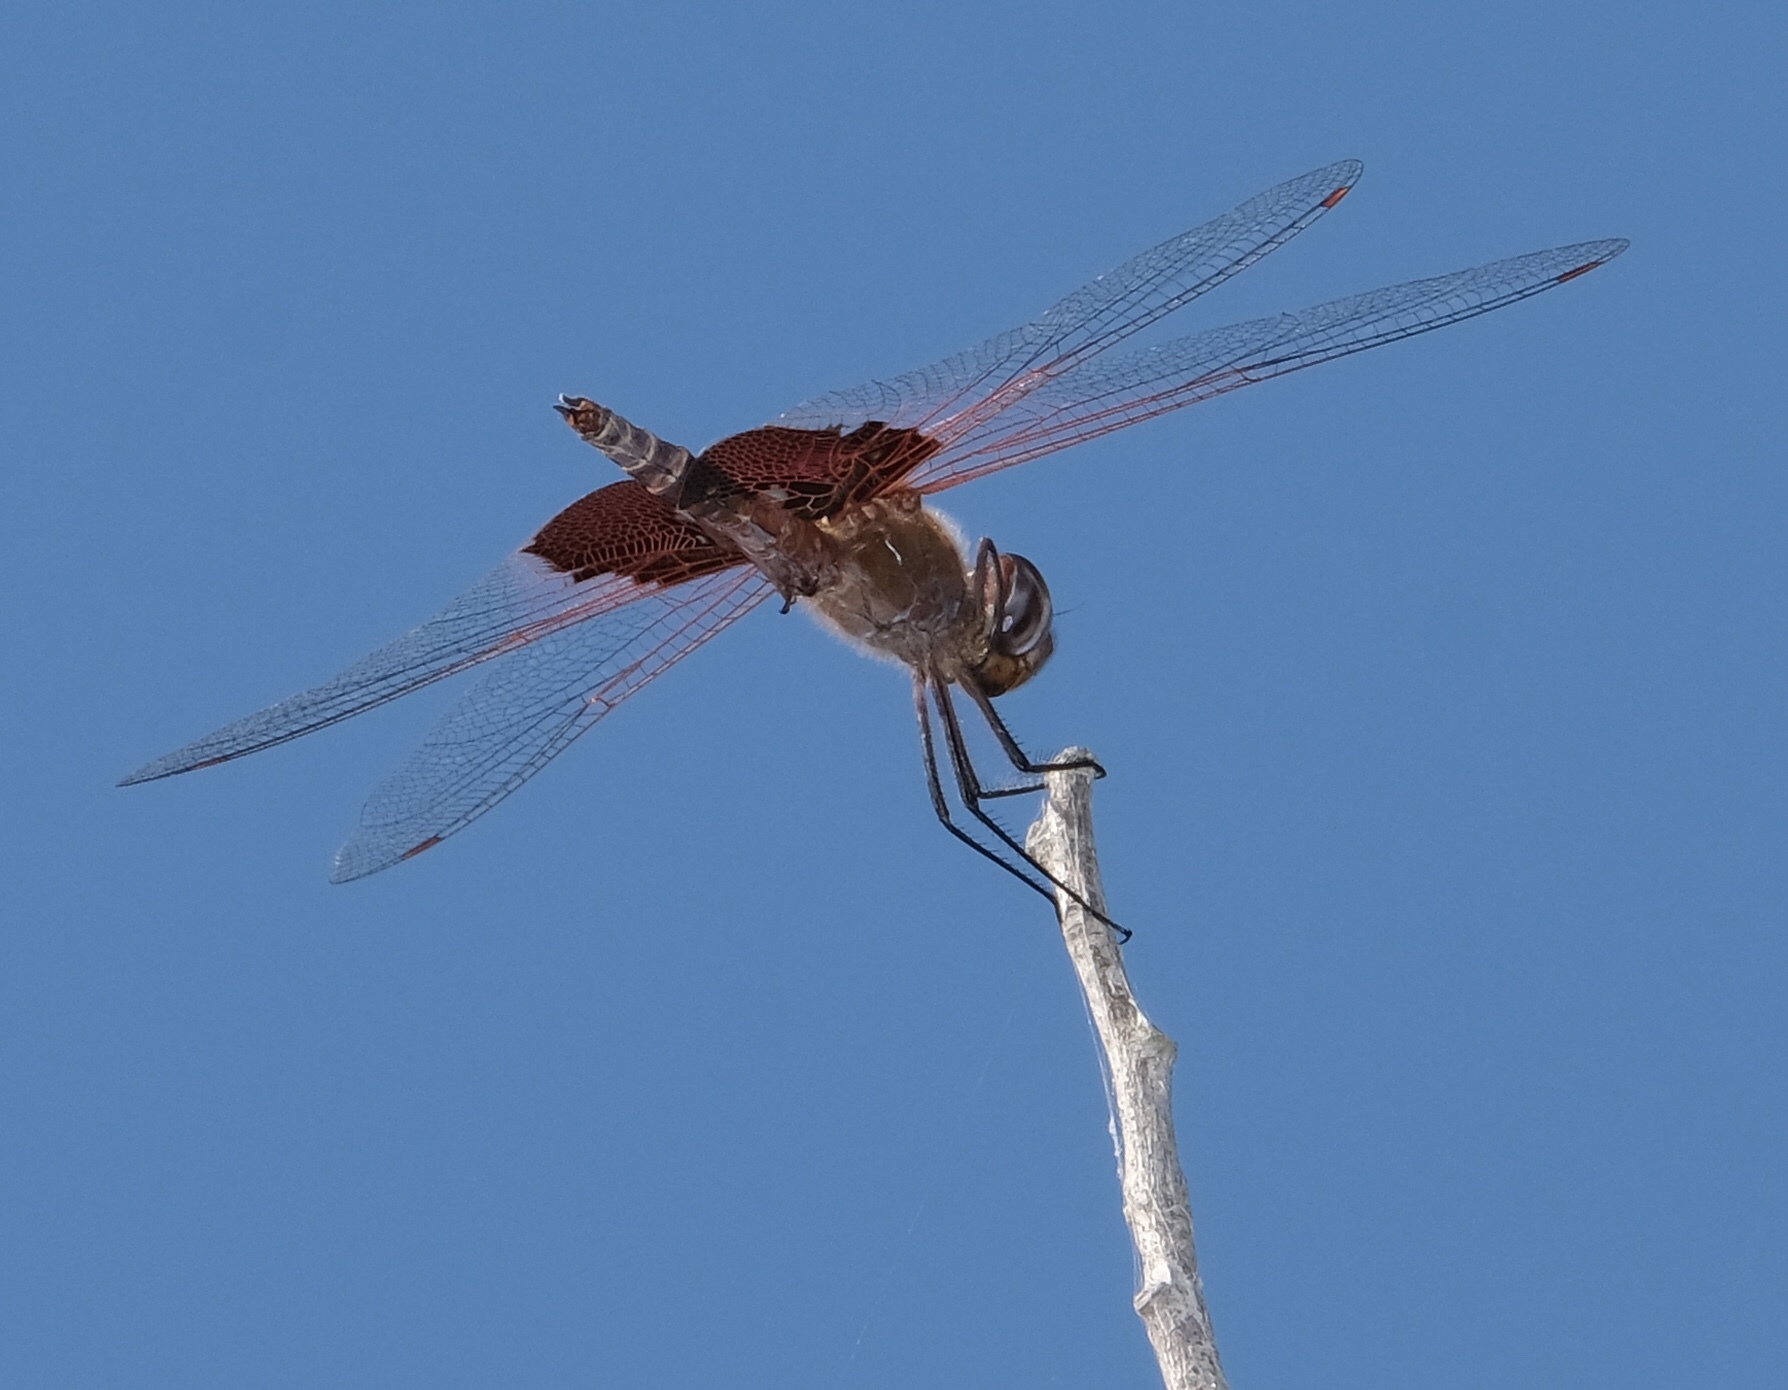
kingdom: Animalia
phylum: Arthropoda
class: Insecta
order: Odonata
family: Libellulidae
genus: Tramea
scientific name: Tramea onusta
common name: Red saddlebags
